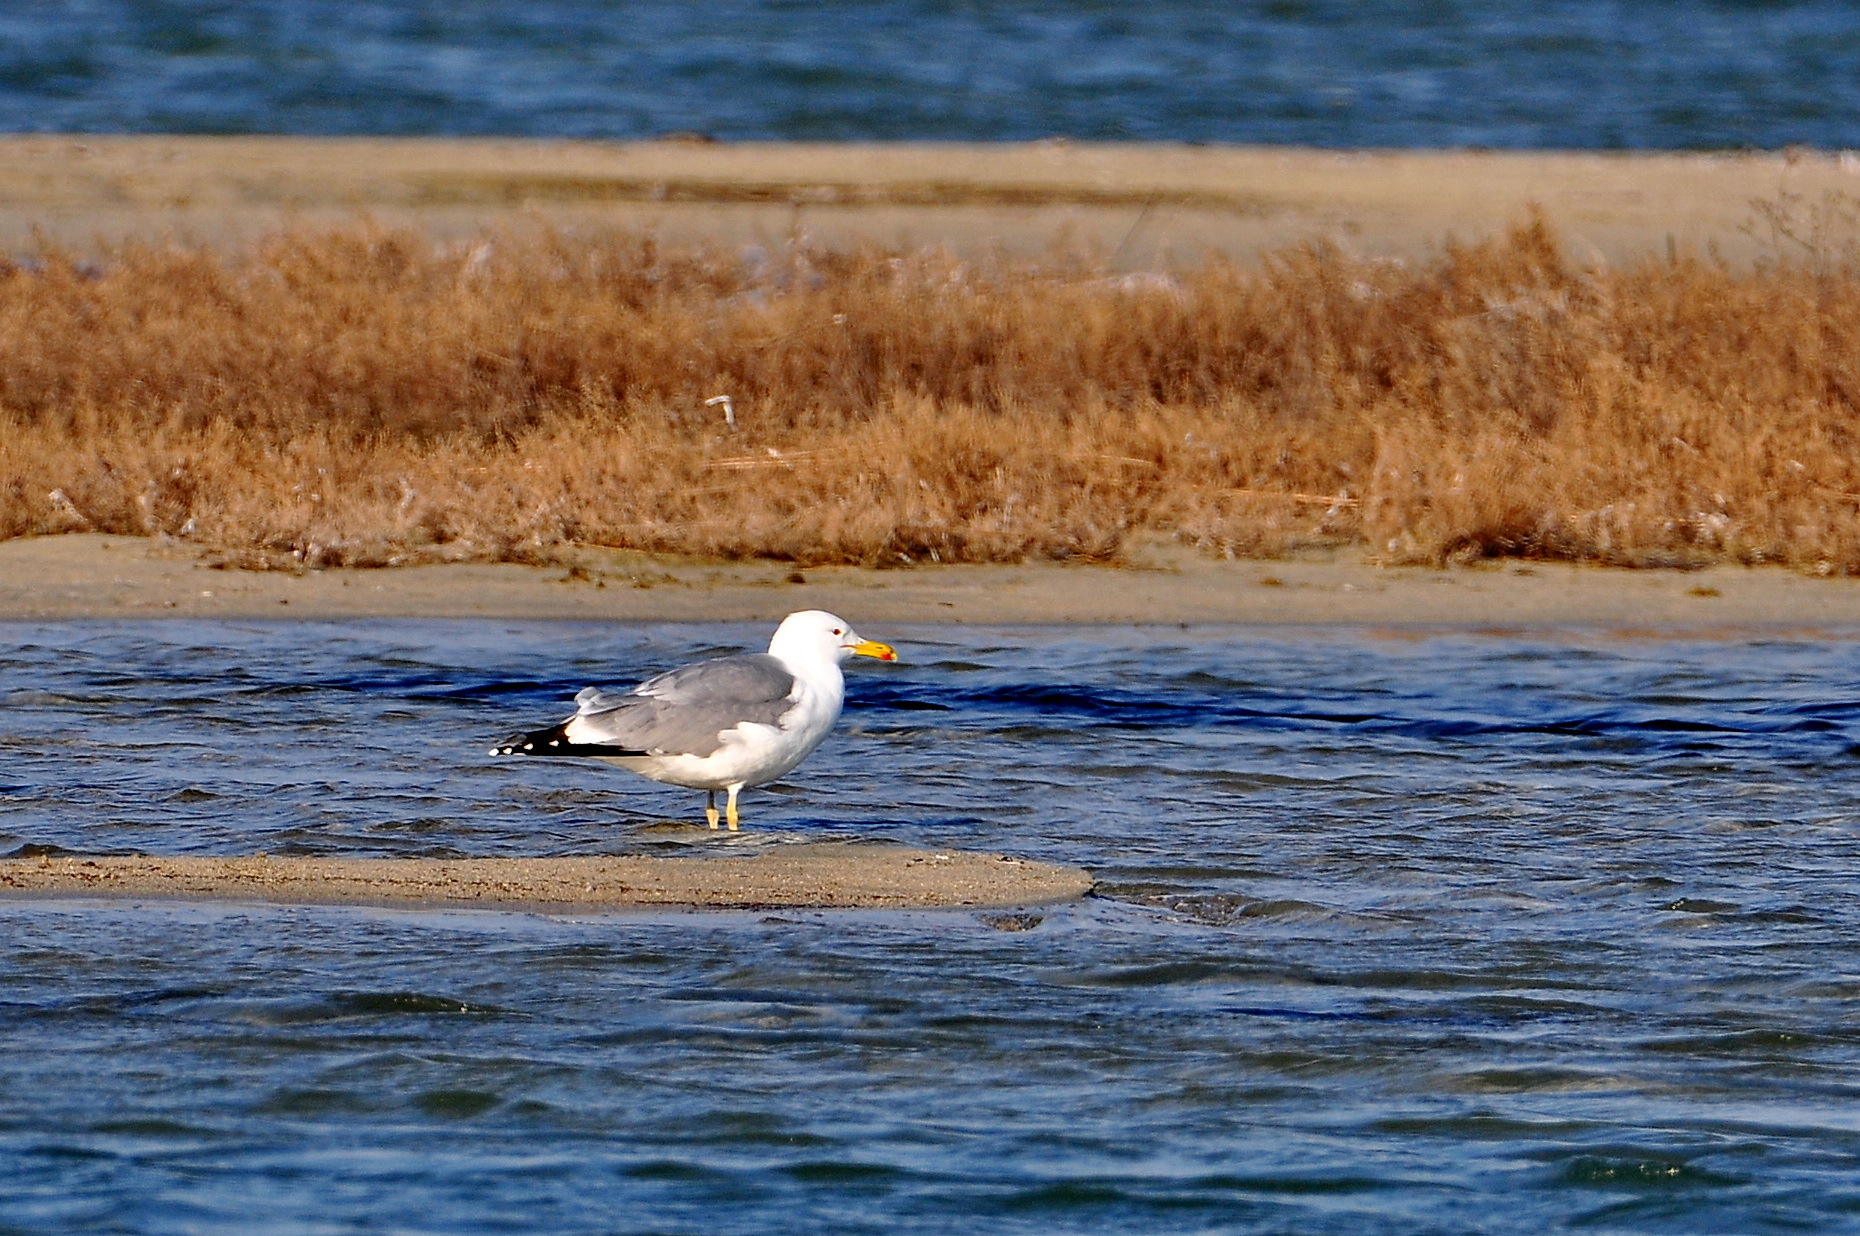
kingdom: Animalia
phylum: Chordata
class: Aves
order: Charadriiformes
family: Laridae
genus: Larus
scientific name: Larus cachinnans
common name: Caspian gull
